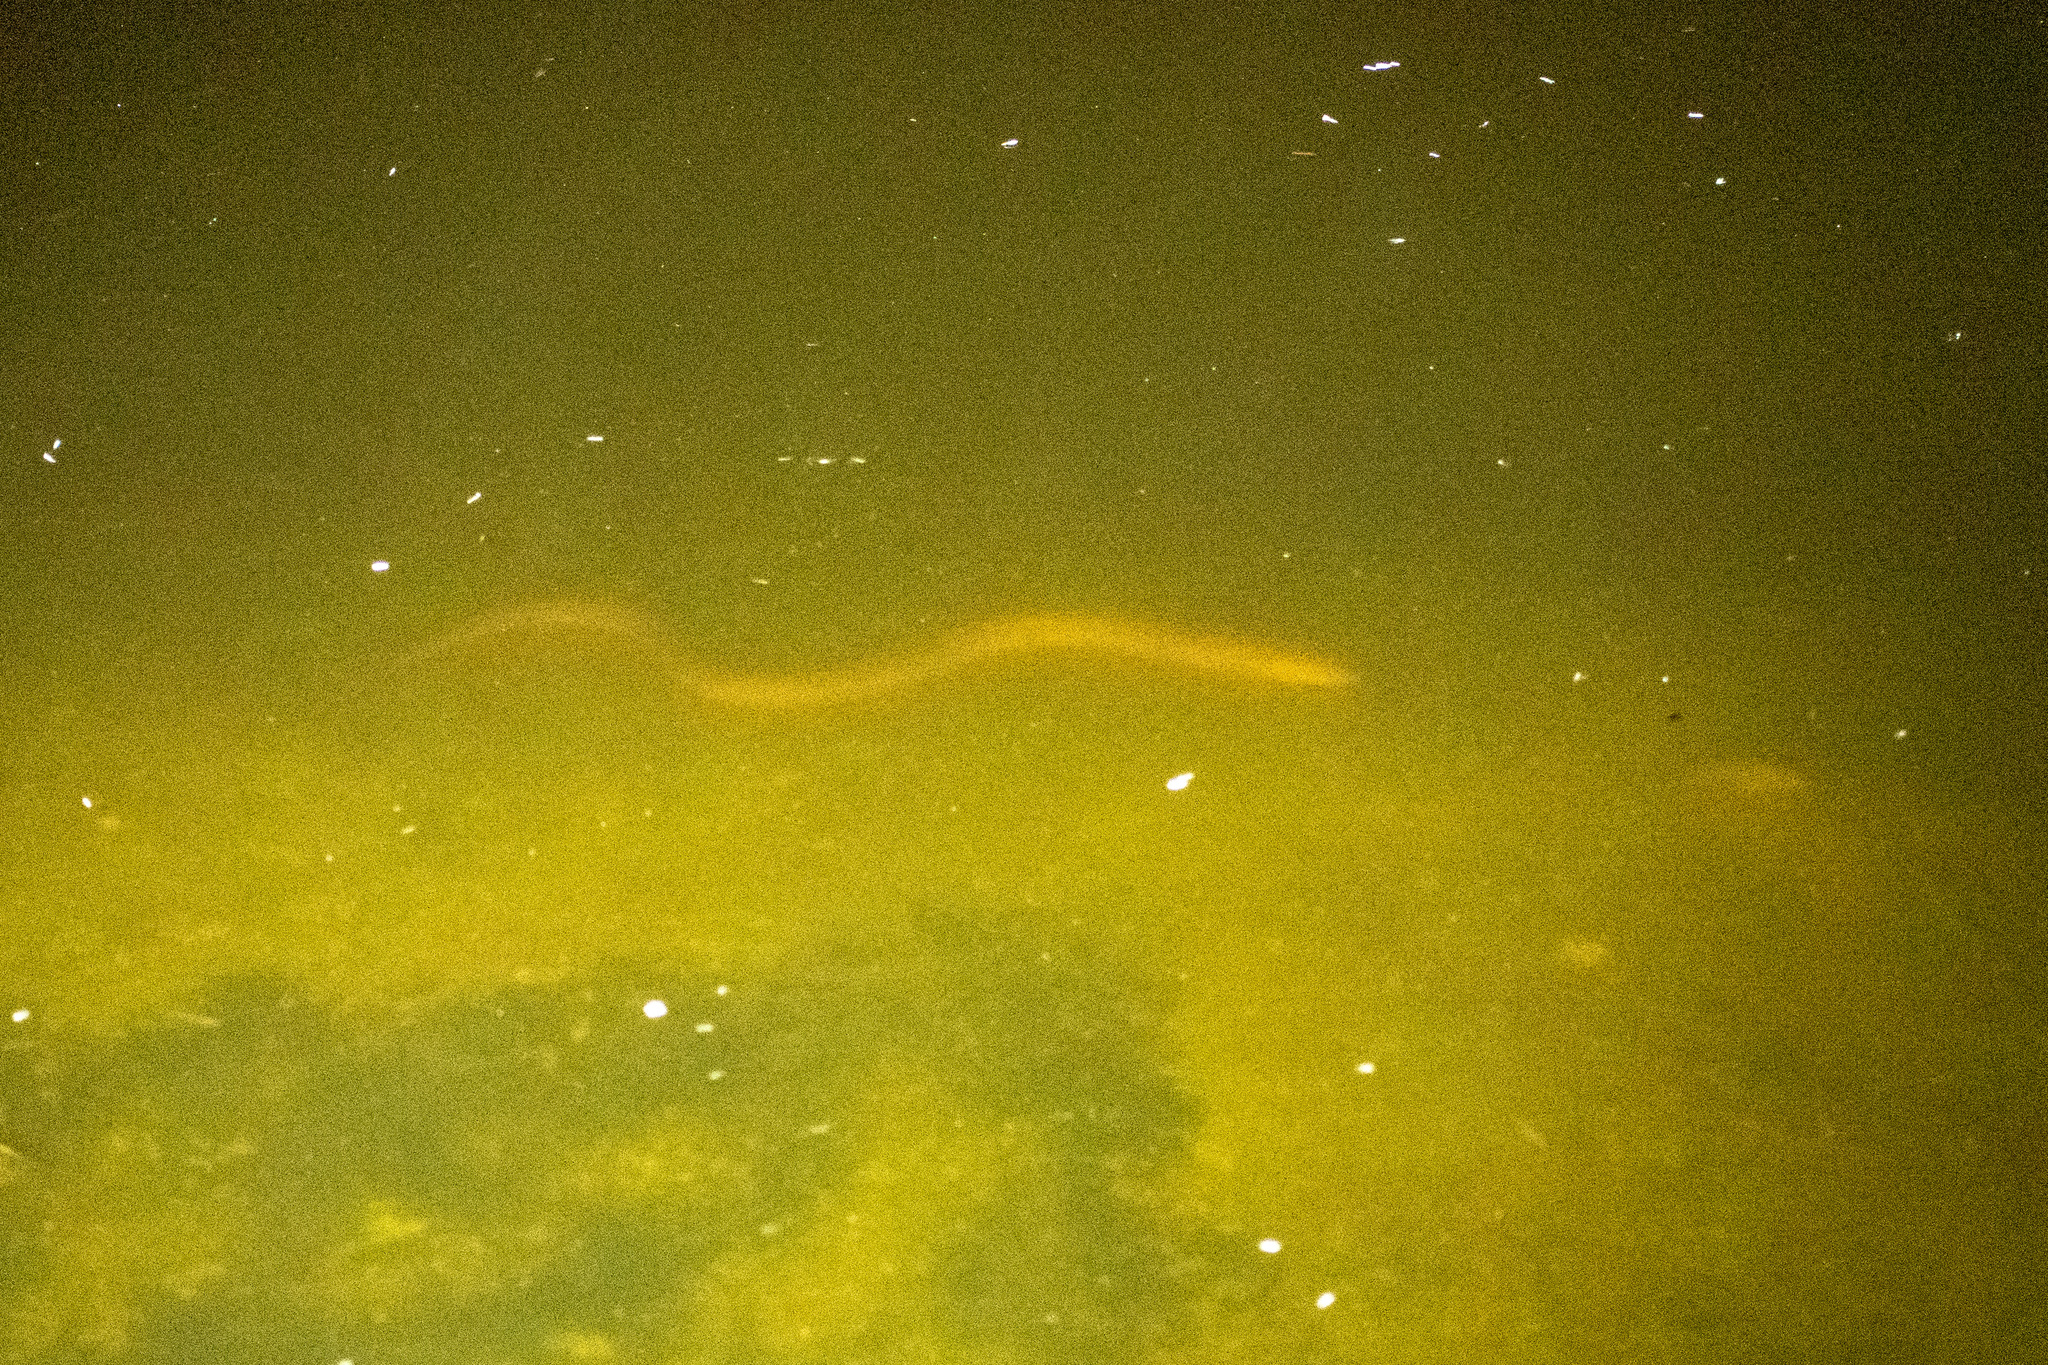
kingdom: Animalia
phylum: Chordata
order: Synbranchiformes
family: Synbranchidae
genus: Synbranchus
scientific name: Synbranchus marmoratus
